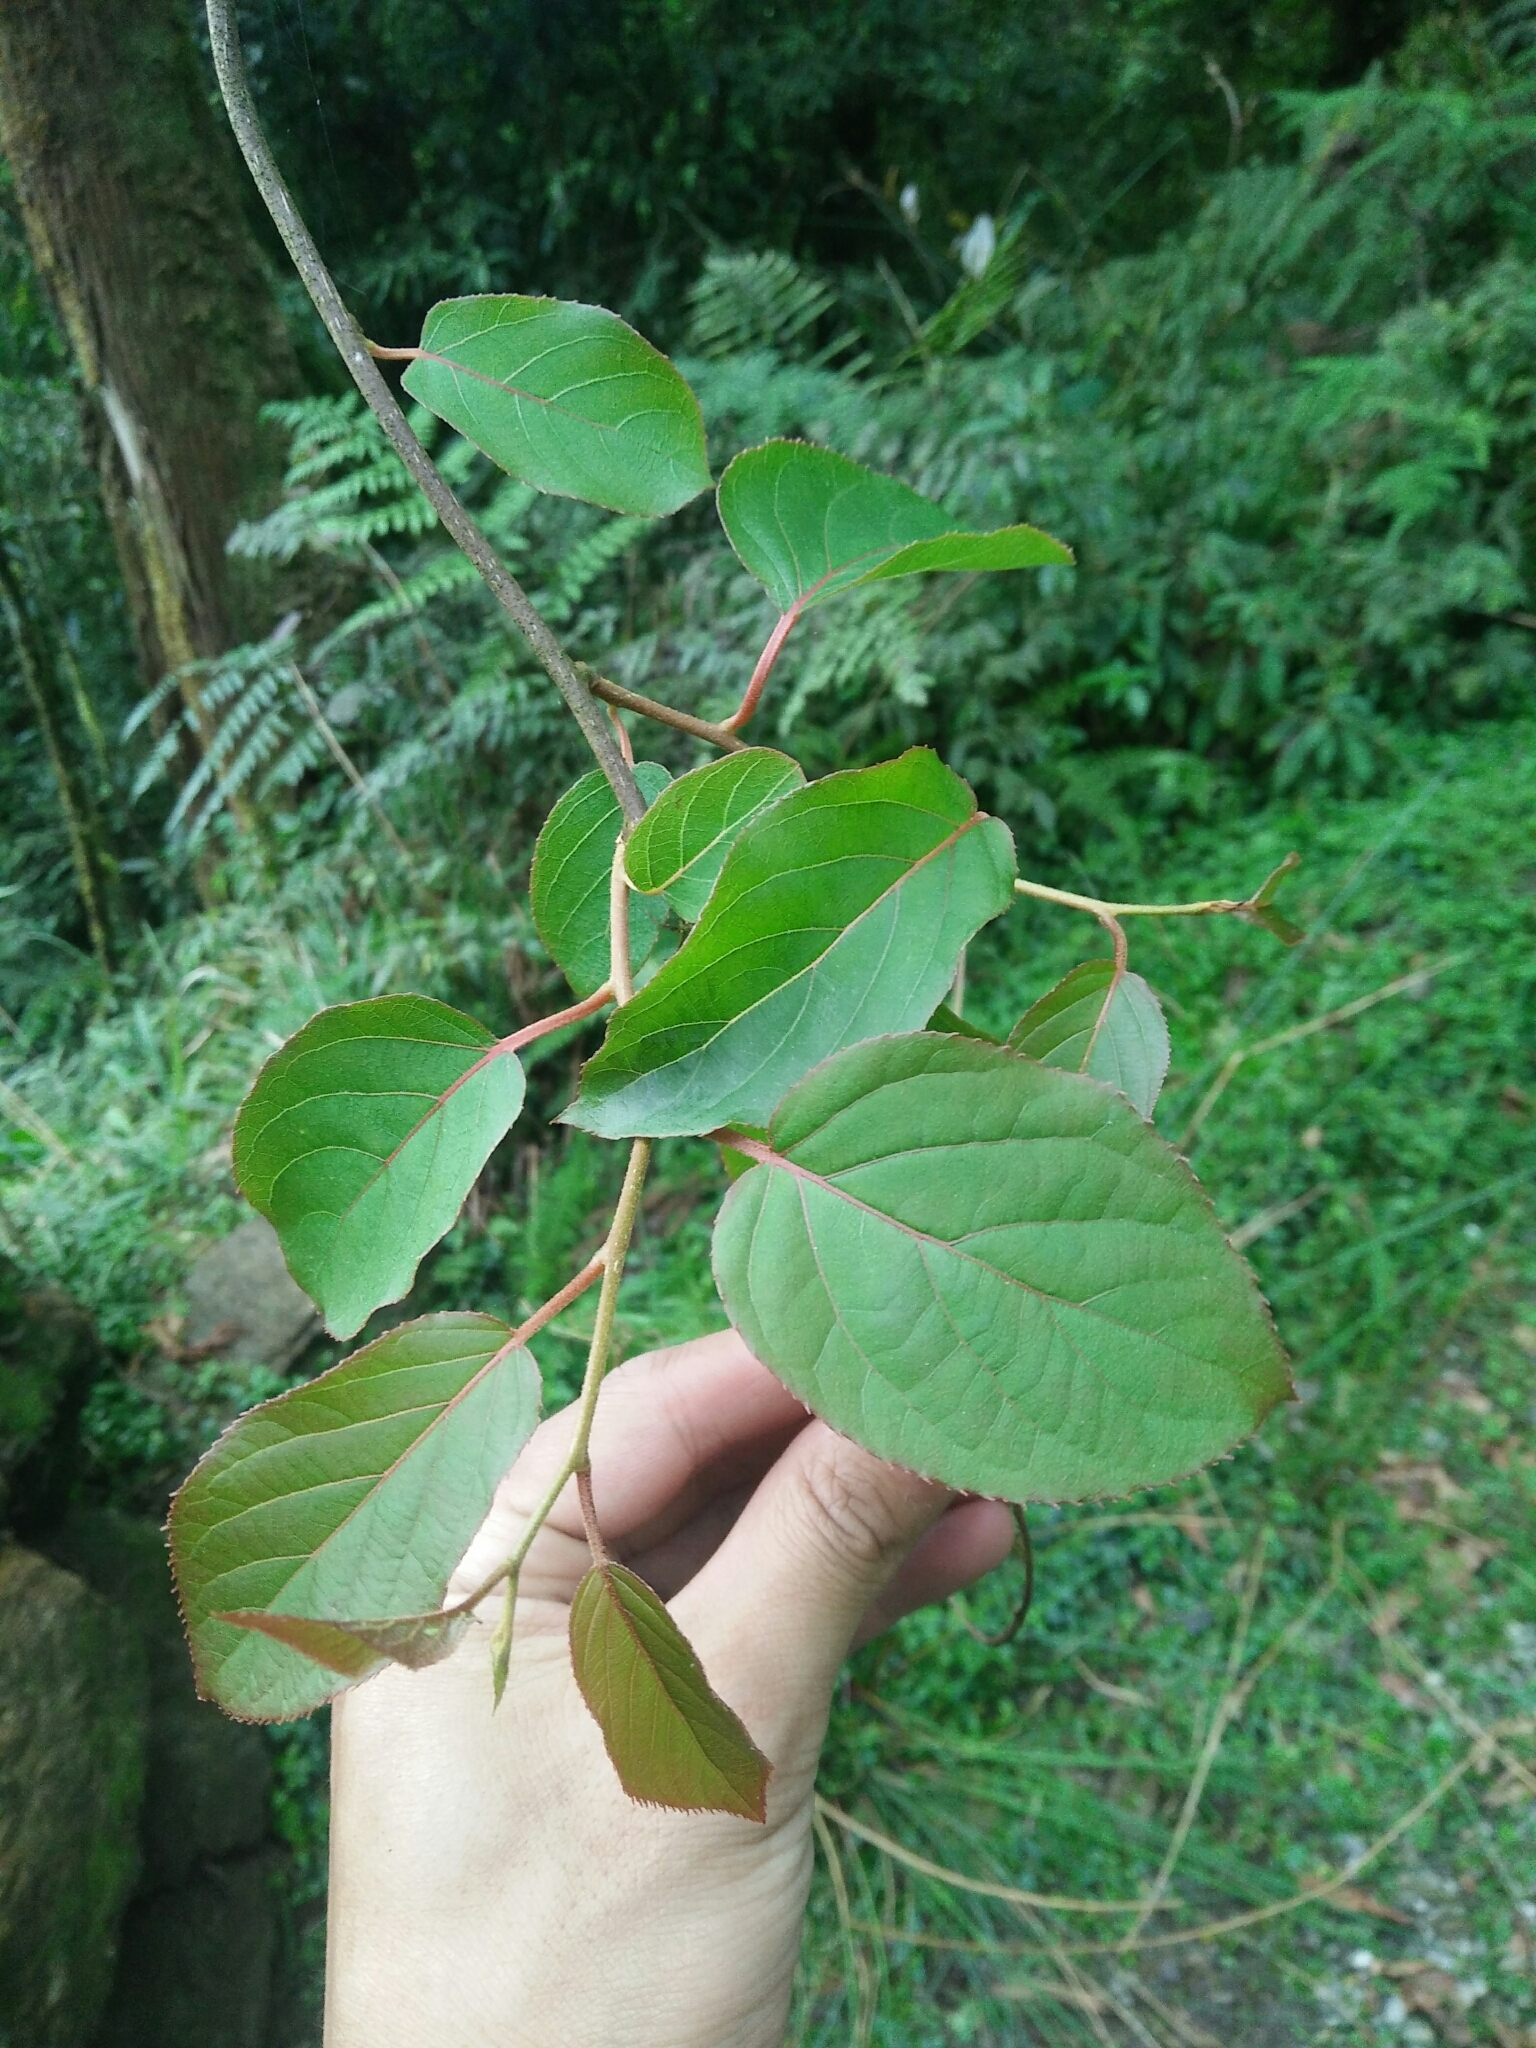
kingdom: Plantae
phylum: Tracheophyta
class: Magnoliopsida
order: Ericales
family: Actinidiaceae
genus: Actinidia
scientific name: Actinidia rufa
